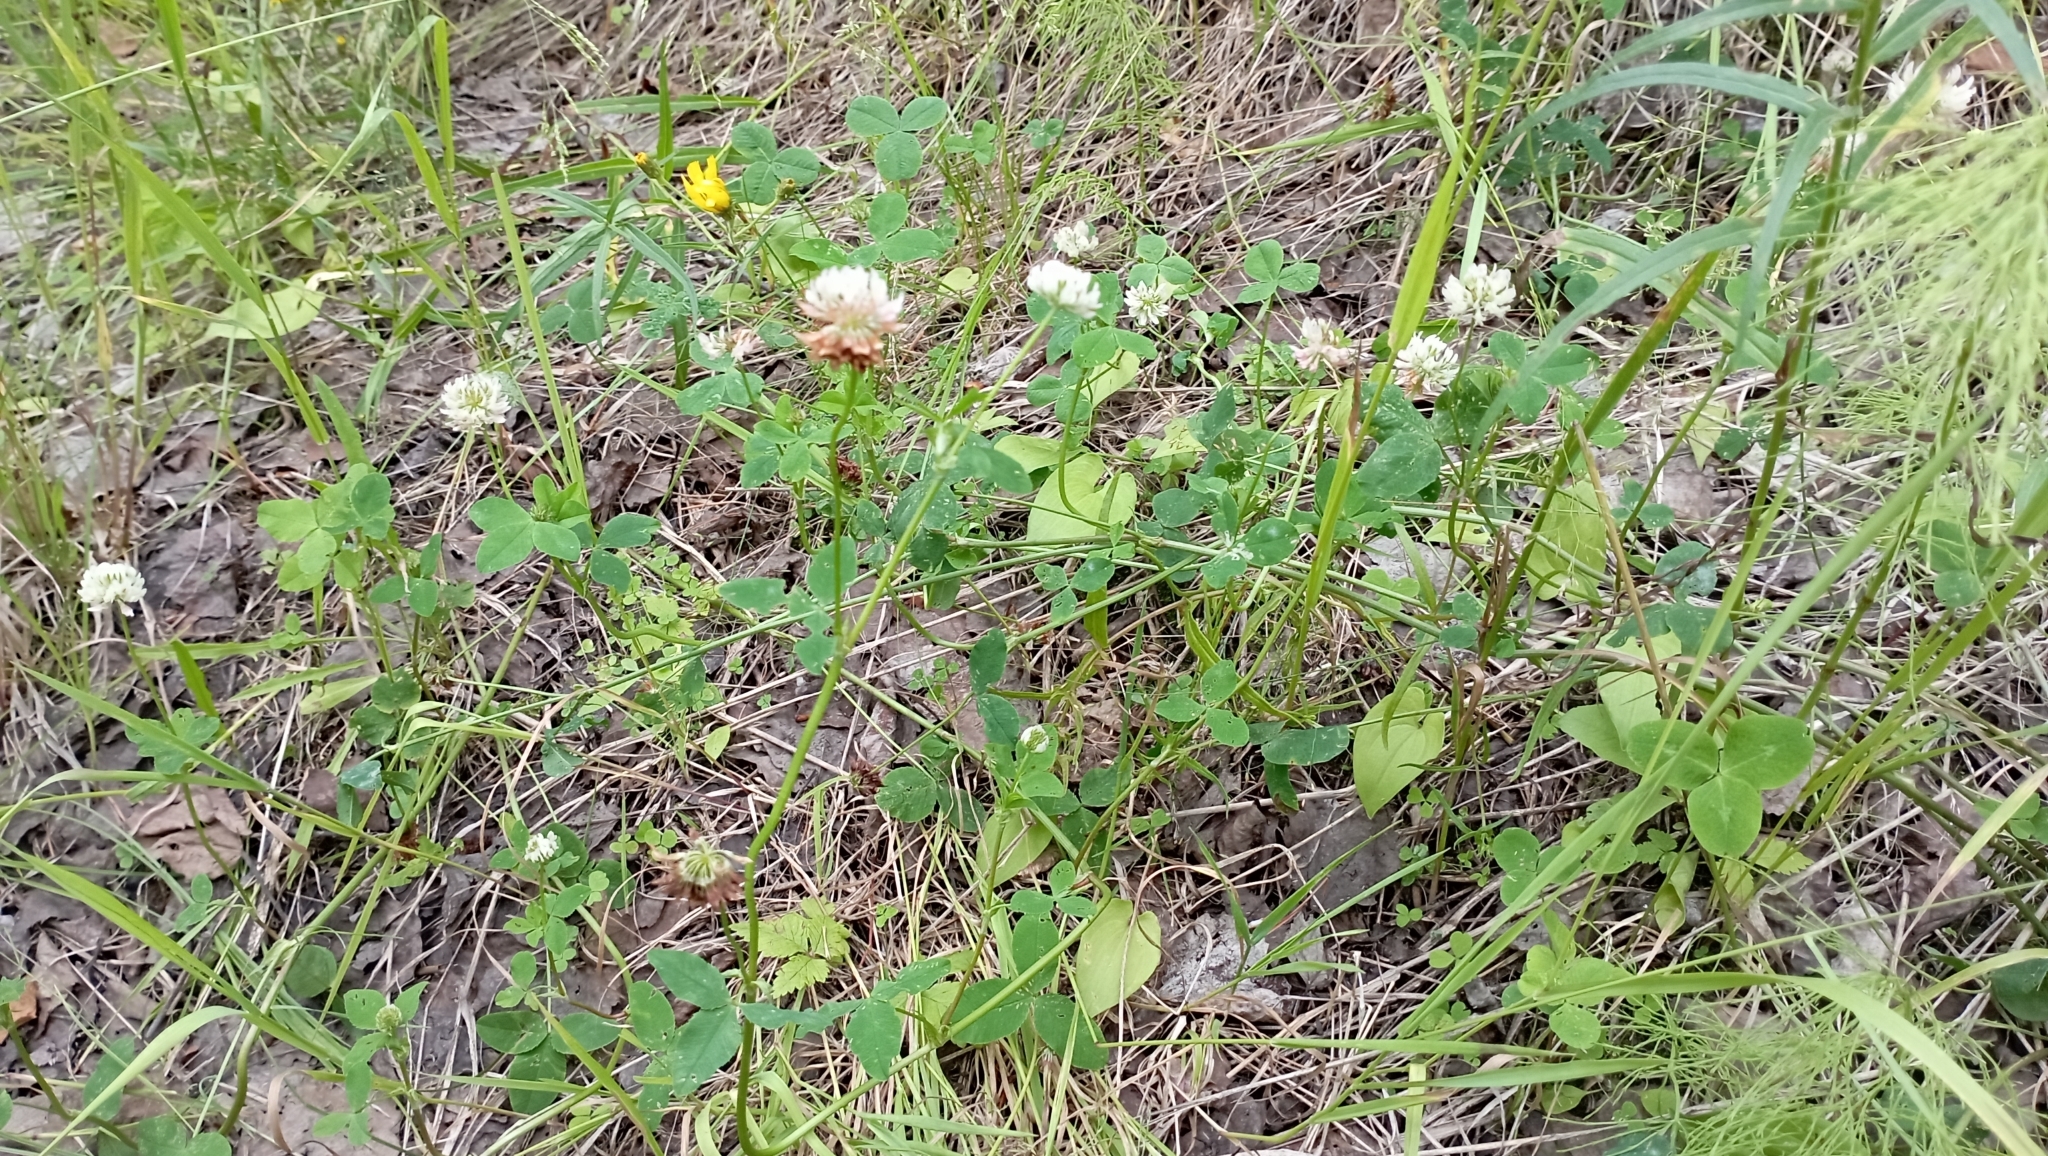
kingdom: Plantae
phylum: Tracheophyta
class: Magnoliopsida
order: Fabales
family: Fabaceae
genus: Trifolium
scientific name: Trifolium repens
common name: White clover
